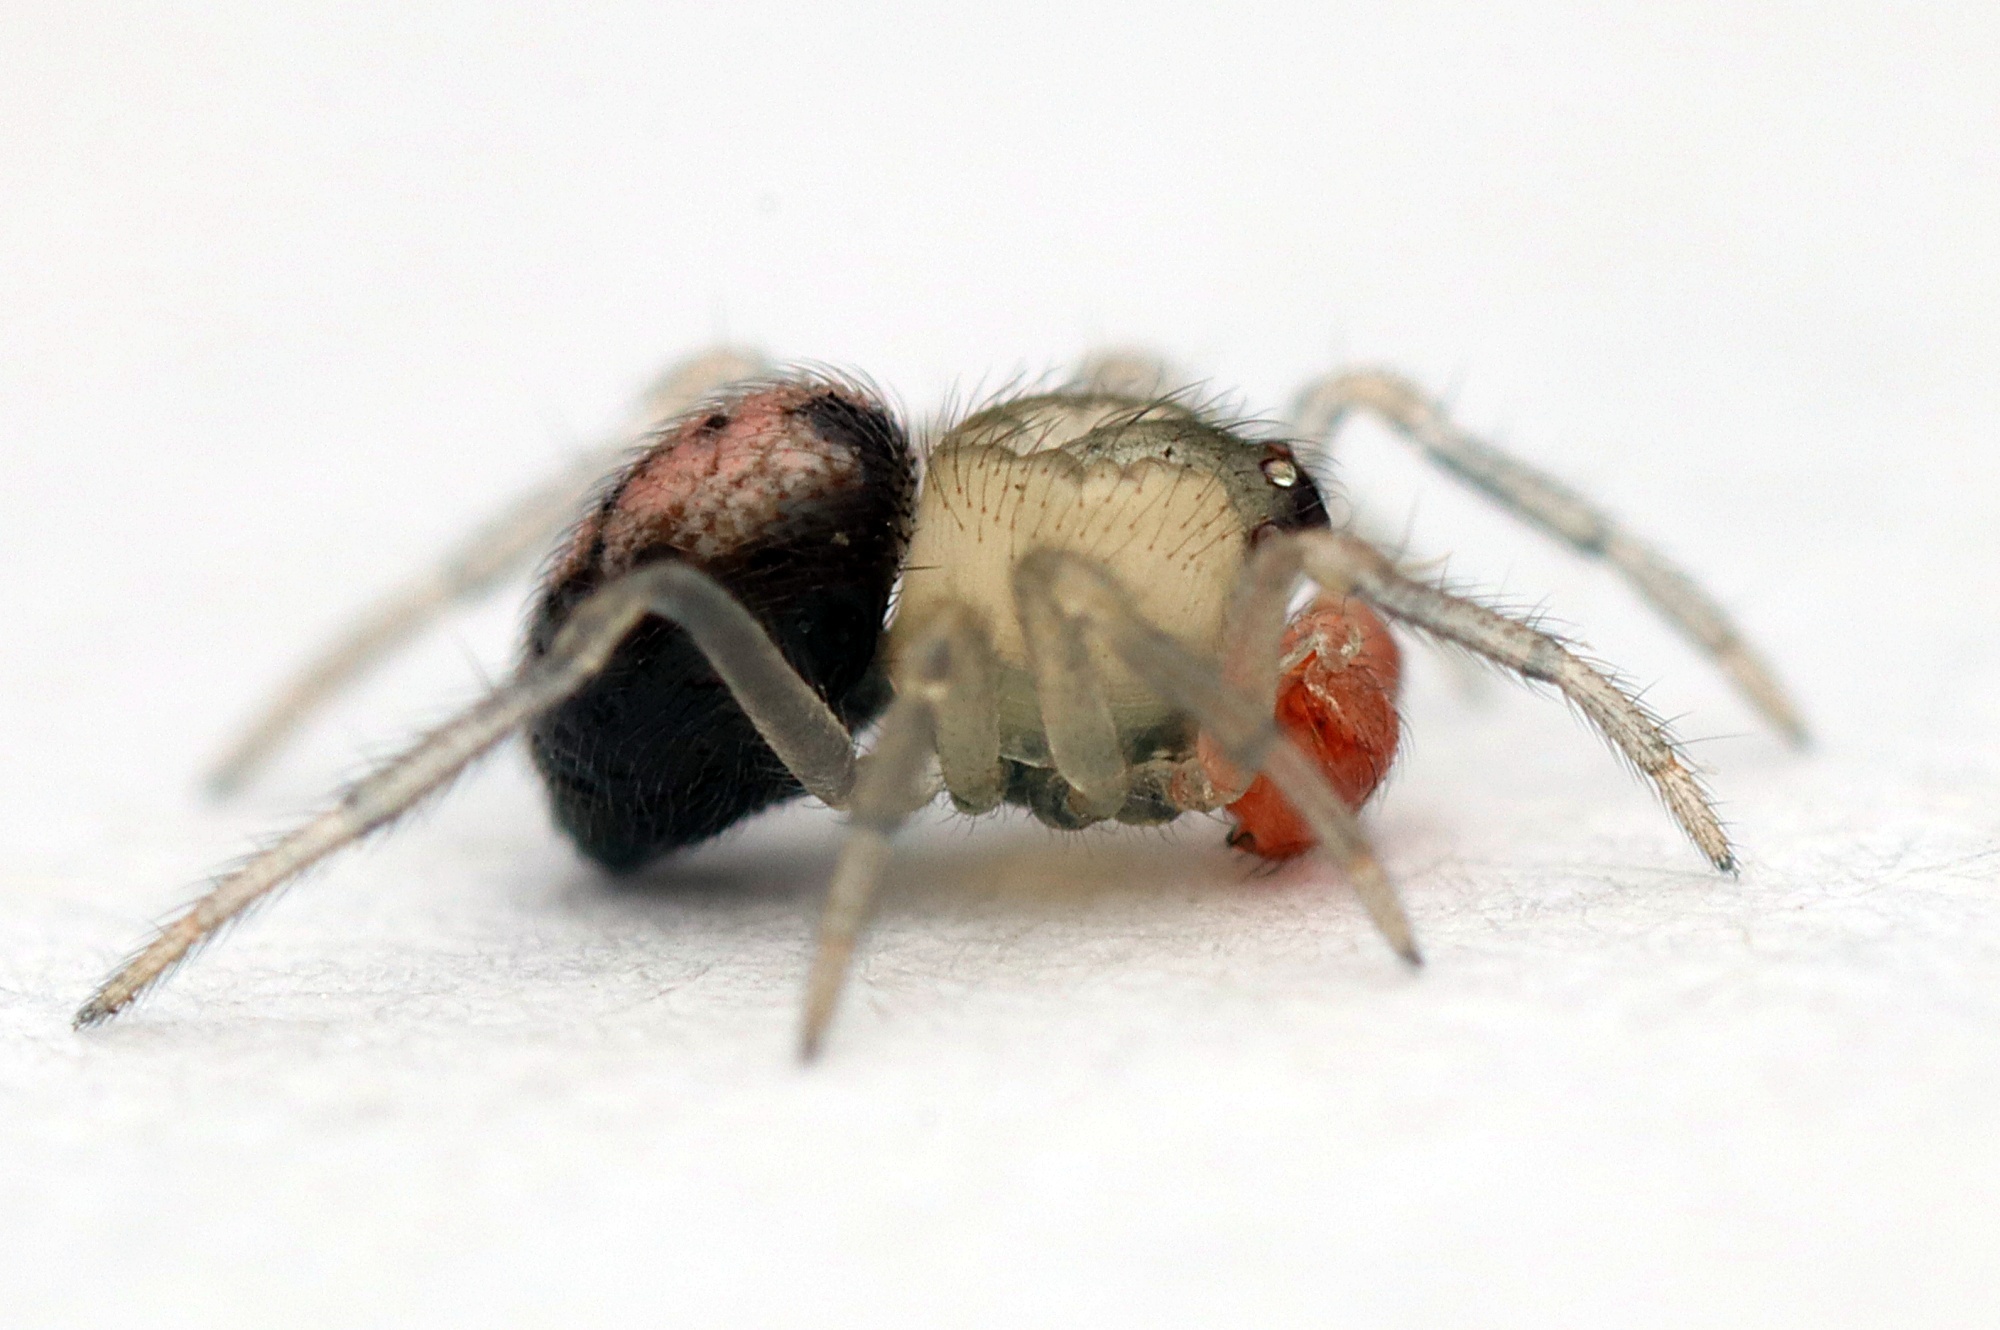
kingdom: Animalia
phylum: Arthropoda
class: Arachnida
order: Araneae
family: Theridiidae
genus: Phycosoma
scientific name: Phycosoma oecobioides
